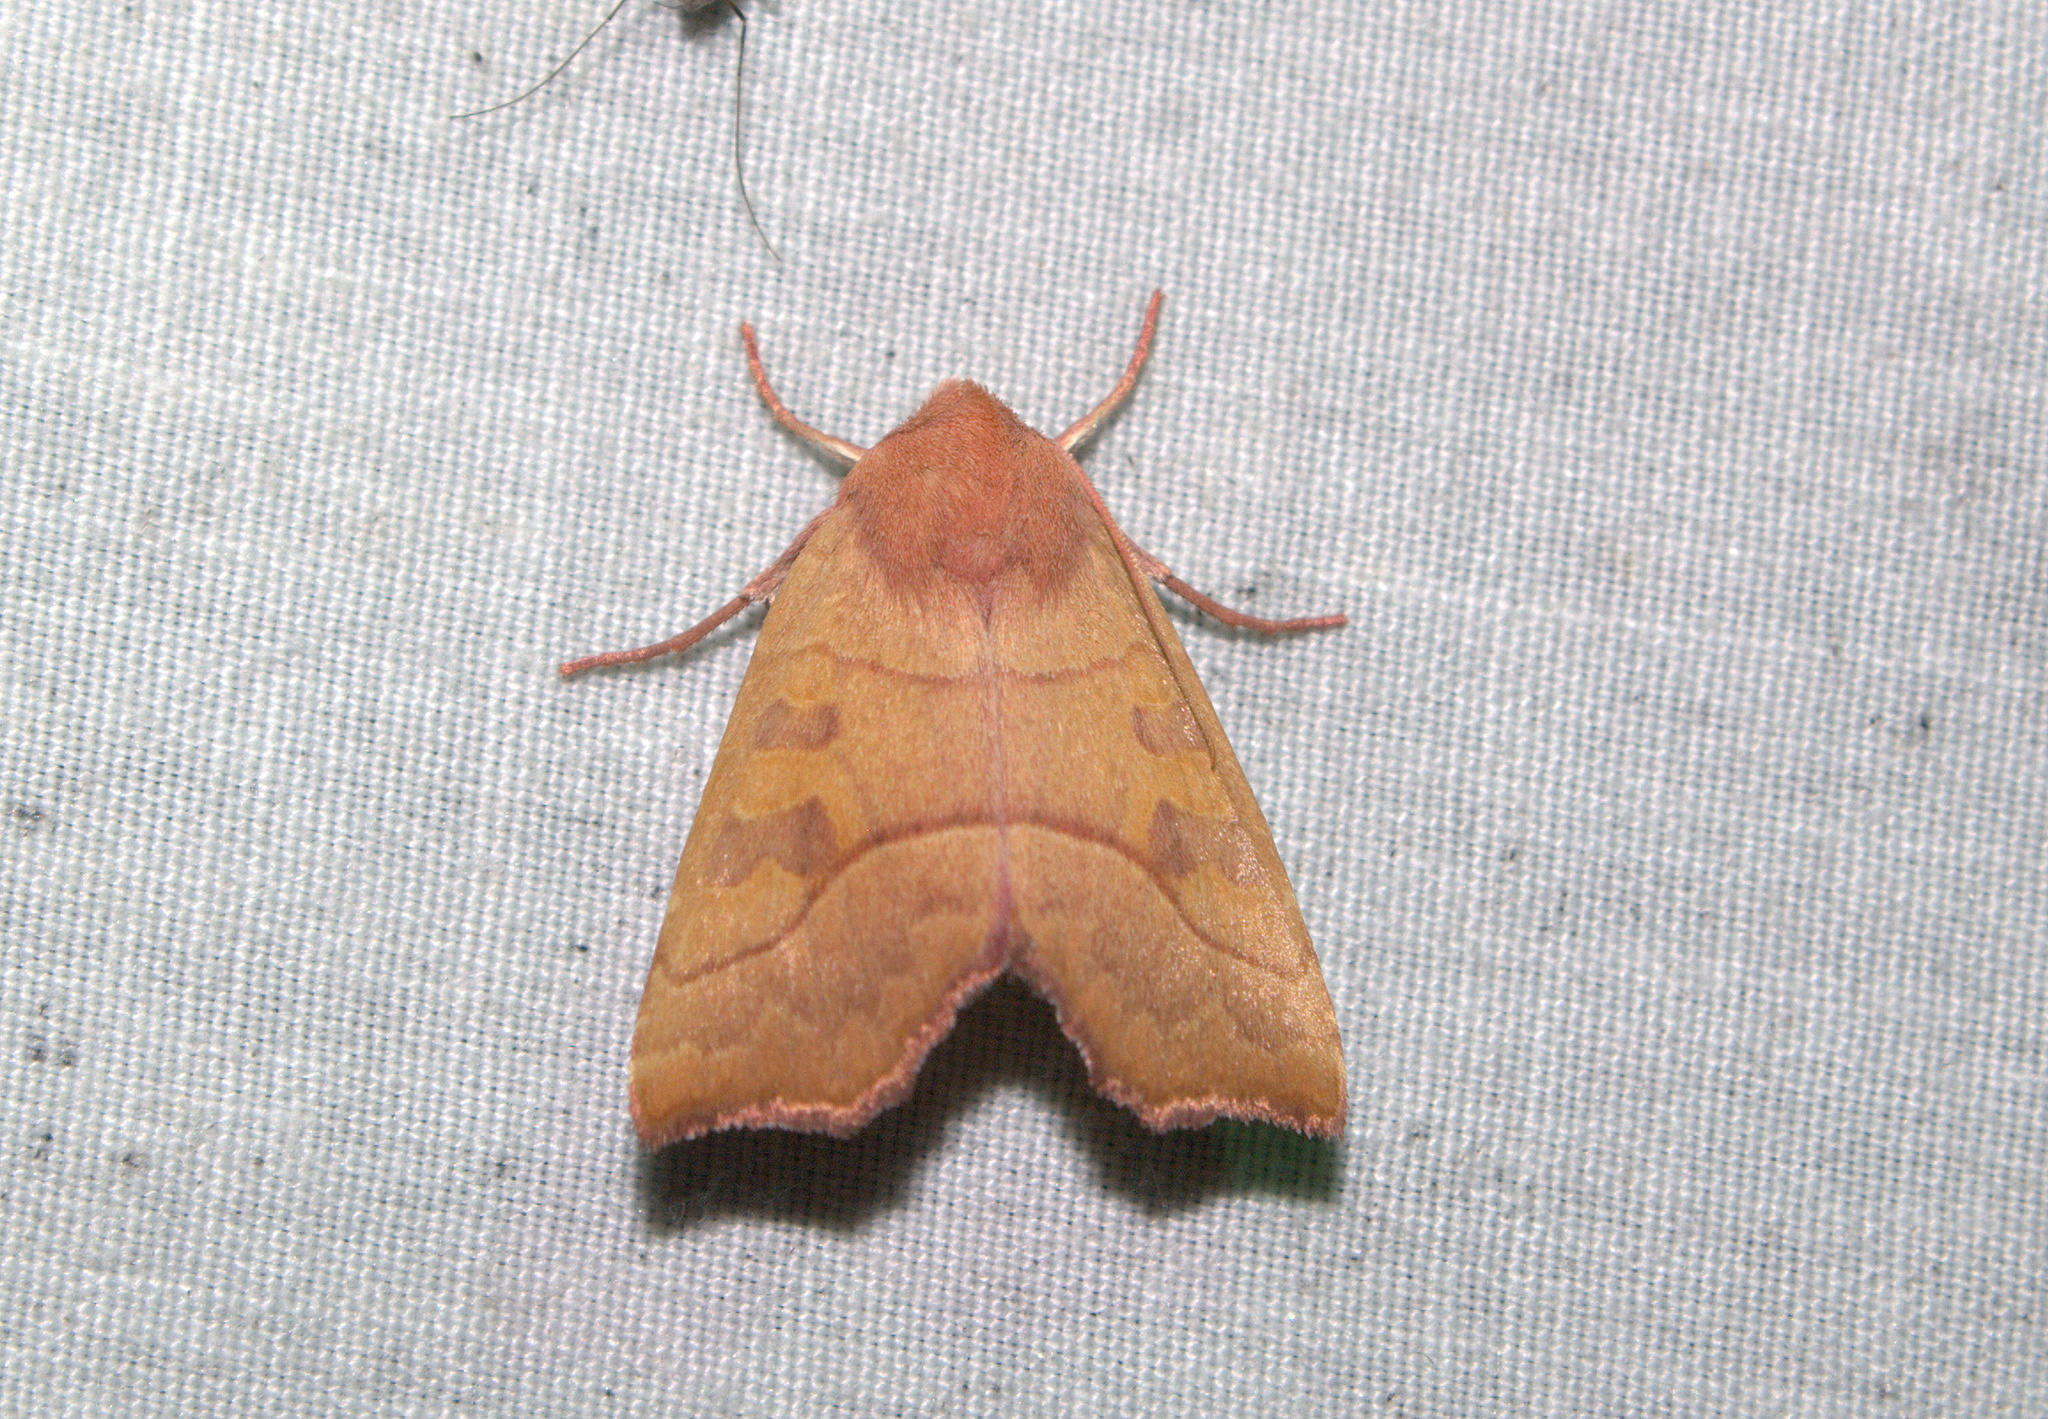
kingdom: Animalia
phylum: Arthropoda
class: Insecta
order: Lepidoptera
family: Noctuidae
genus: Eucirroedia
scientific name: Eucirroedia pampina
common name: Scalloped sallow
